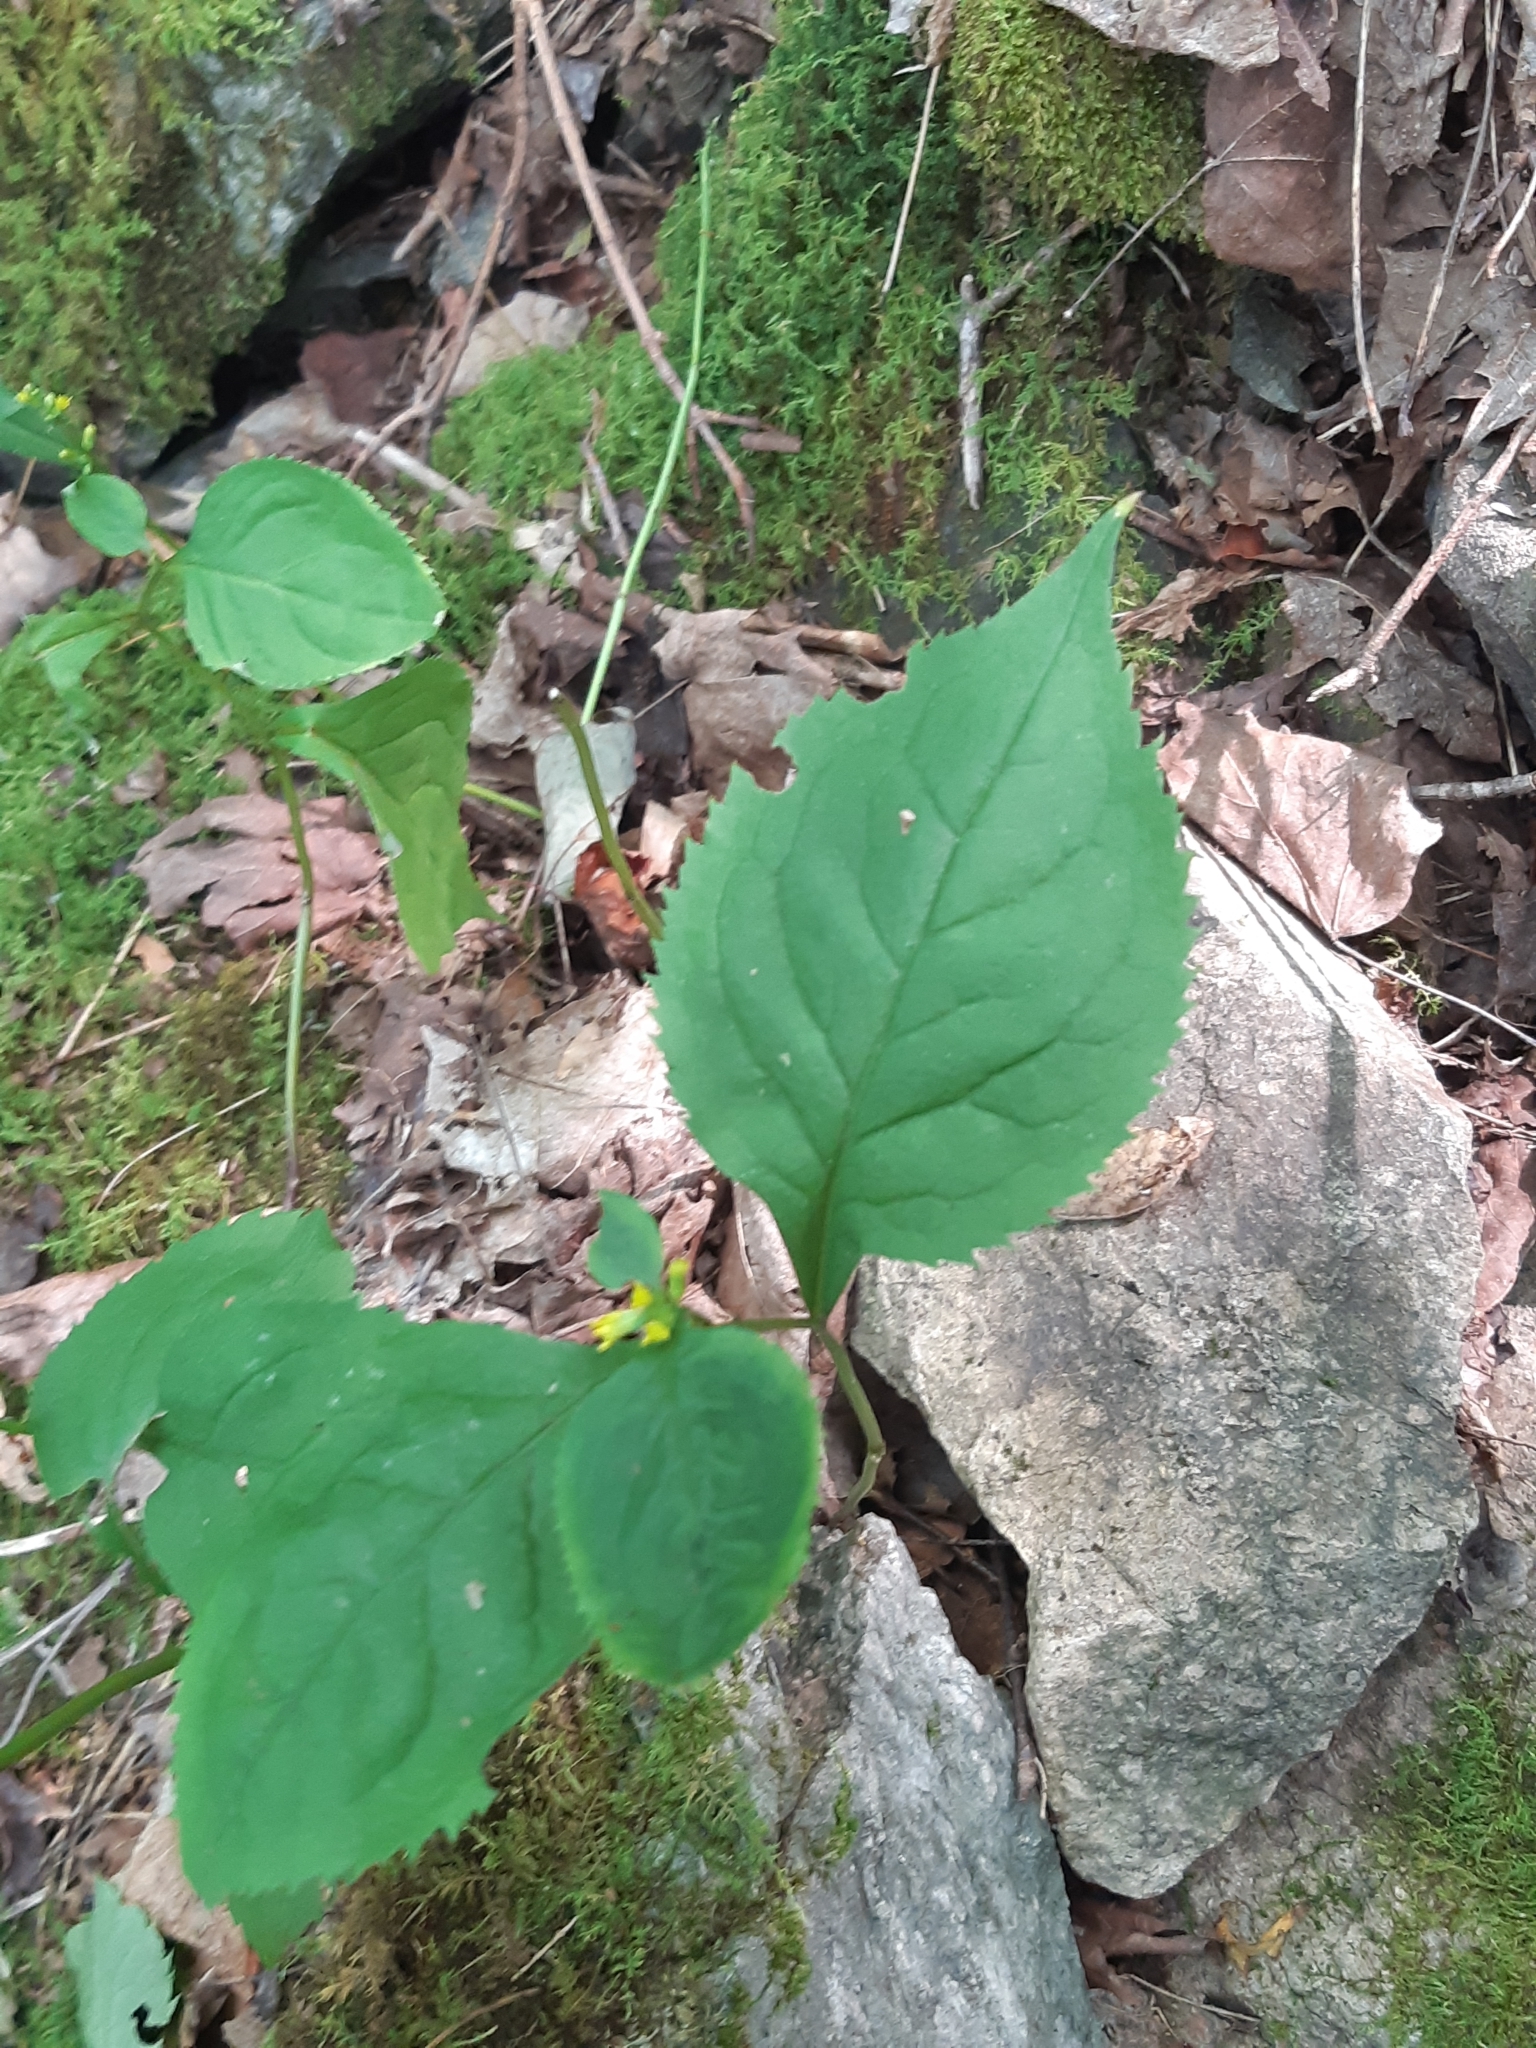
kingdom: Plantae
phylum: Tracheophyta
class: Magnoliopsida
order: Asterales
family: Asteraceae
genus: Solidago
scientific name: Solidago flexicaulis
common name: Zig-zag goldenrod
